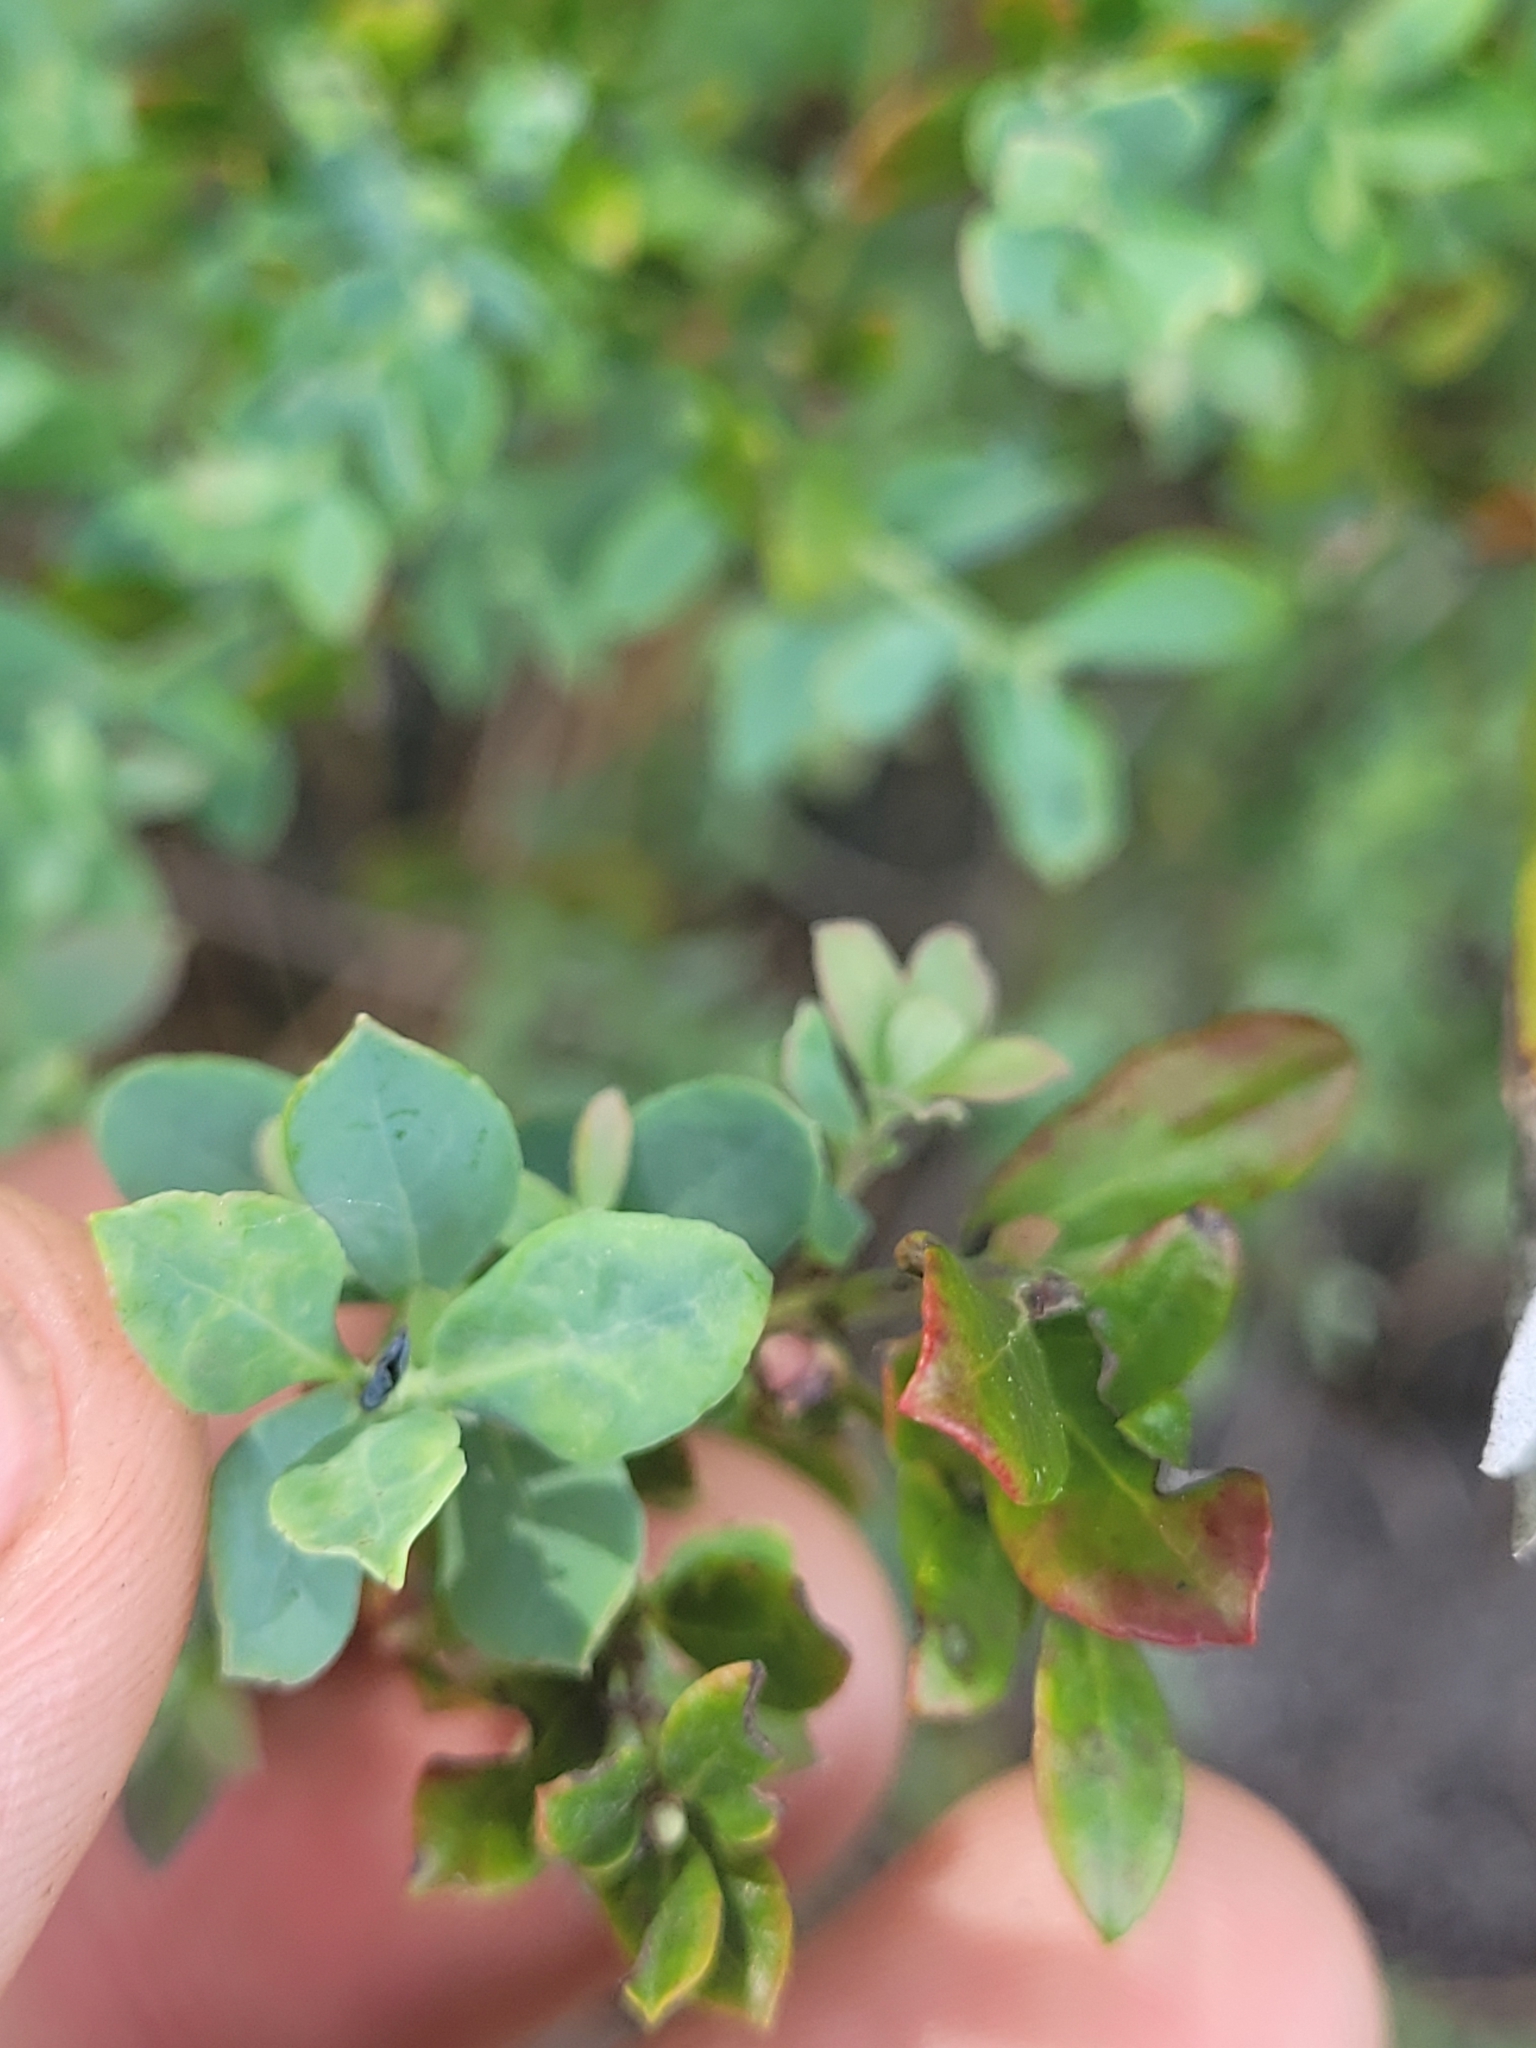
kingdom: Plantae
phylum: Tracheophyta
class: Magnoliopsida
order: Ericales
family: Ericaceae
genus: Vaccinium
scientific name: Vaccinium darrowii
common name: Darrow's blueberry
